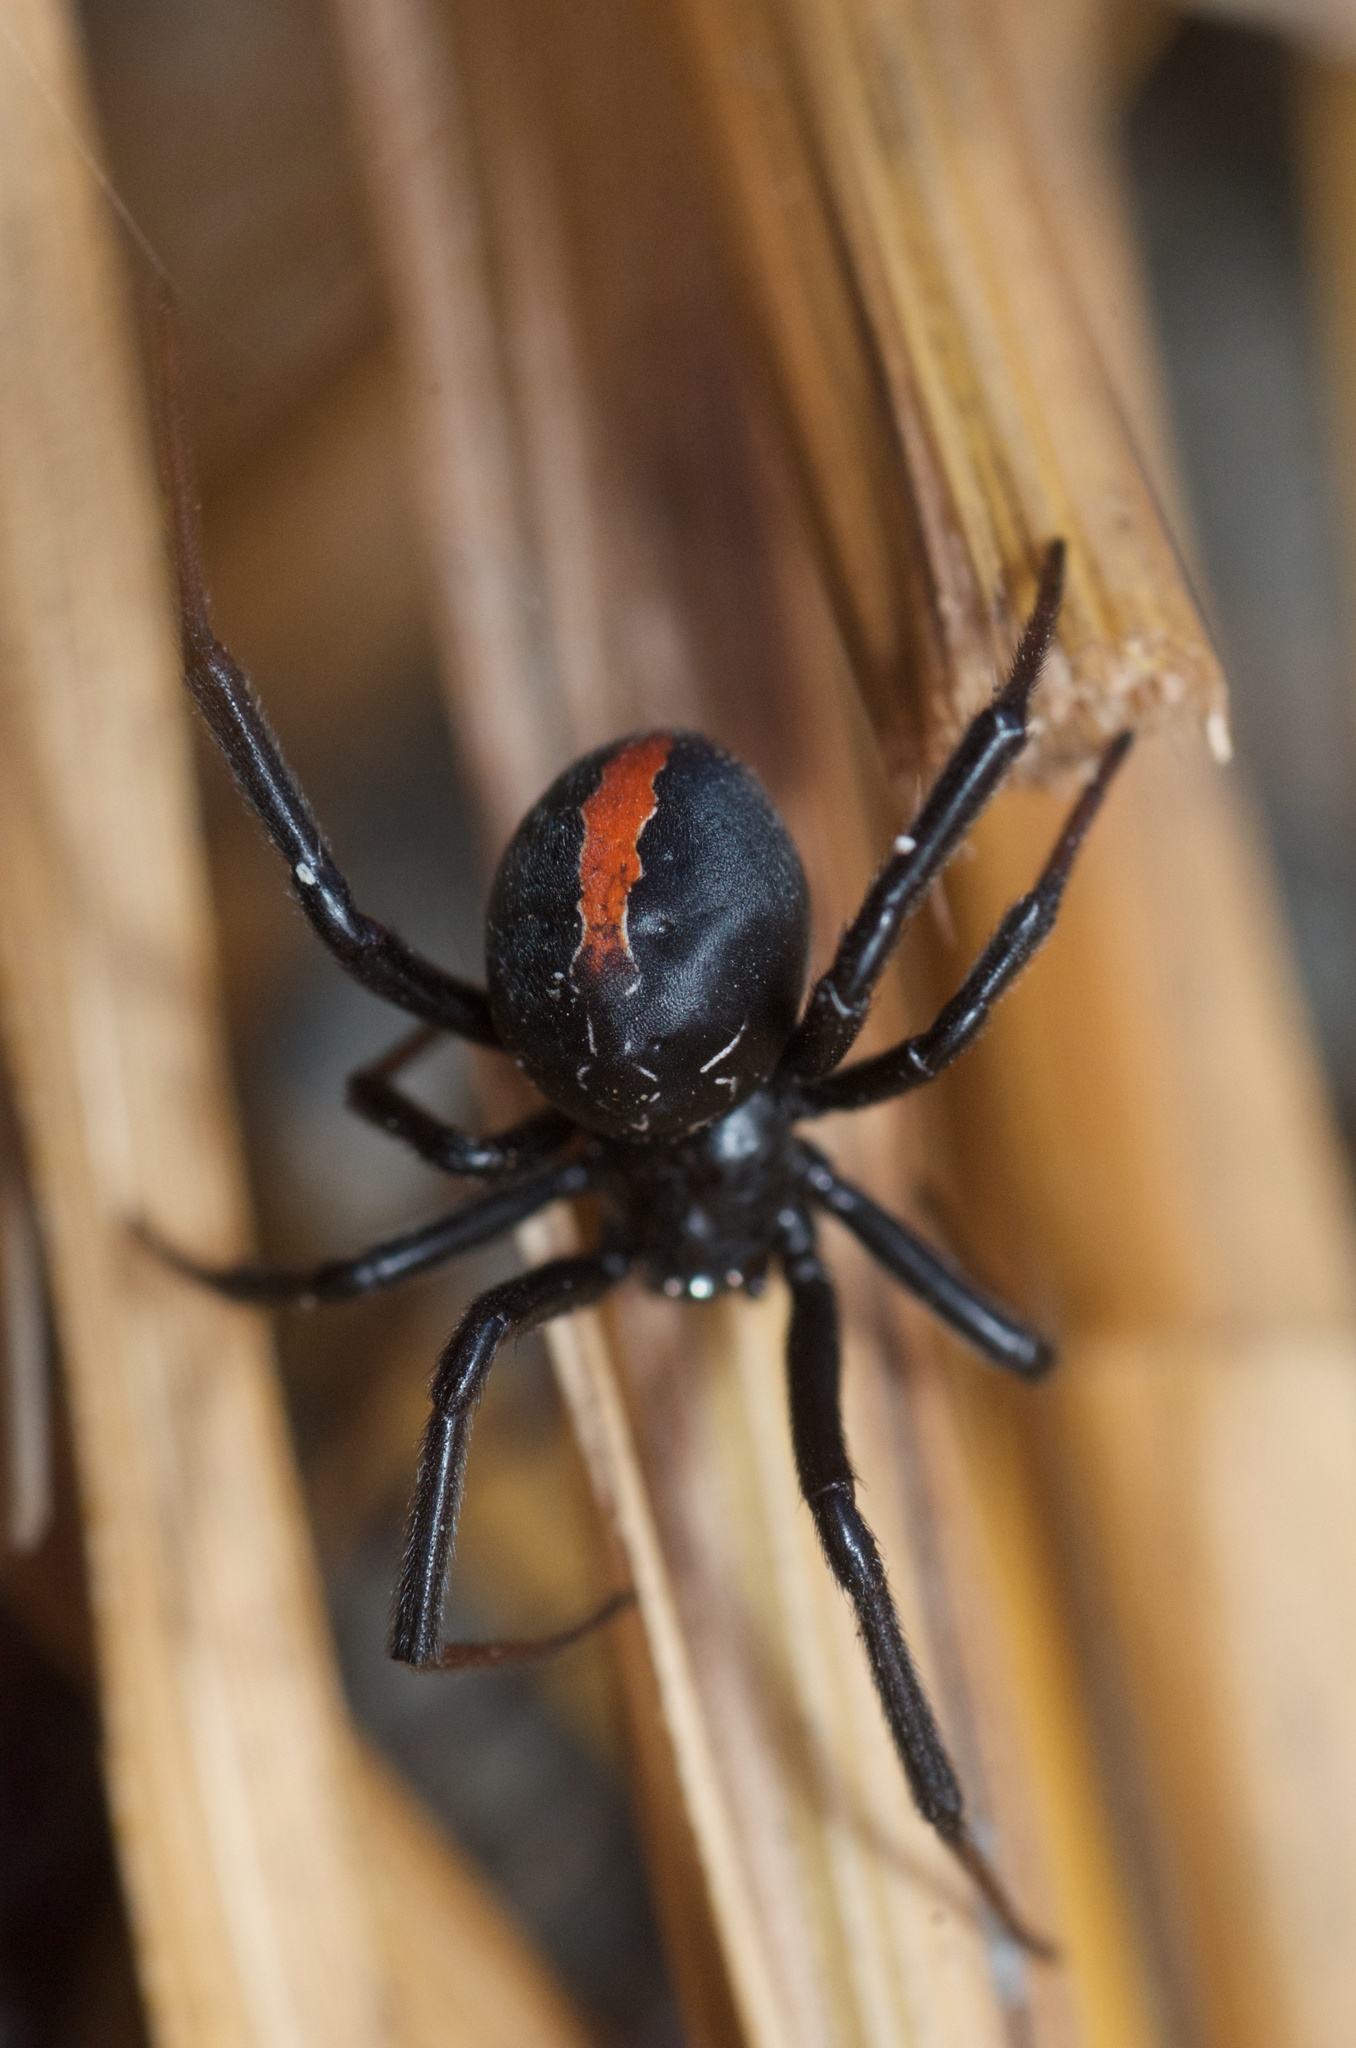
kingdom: Animalia
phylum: Arthropoda
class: Arachnida
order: Araneae
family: Theridiidae
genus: Latrodectus
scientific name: Latrodectus katipo
